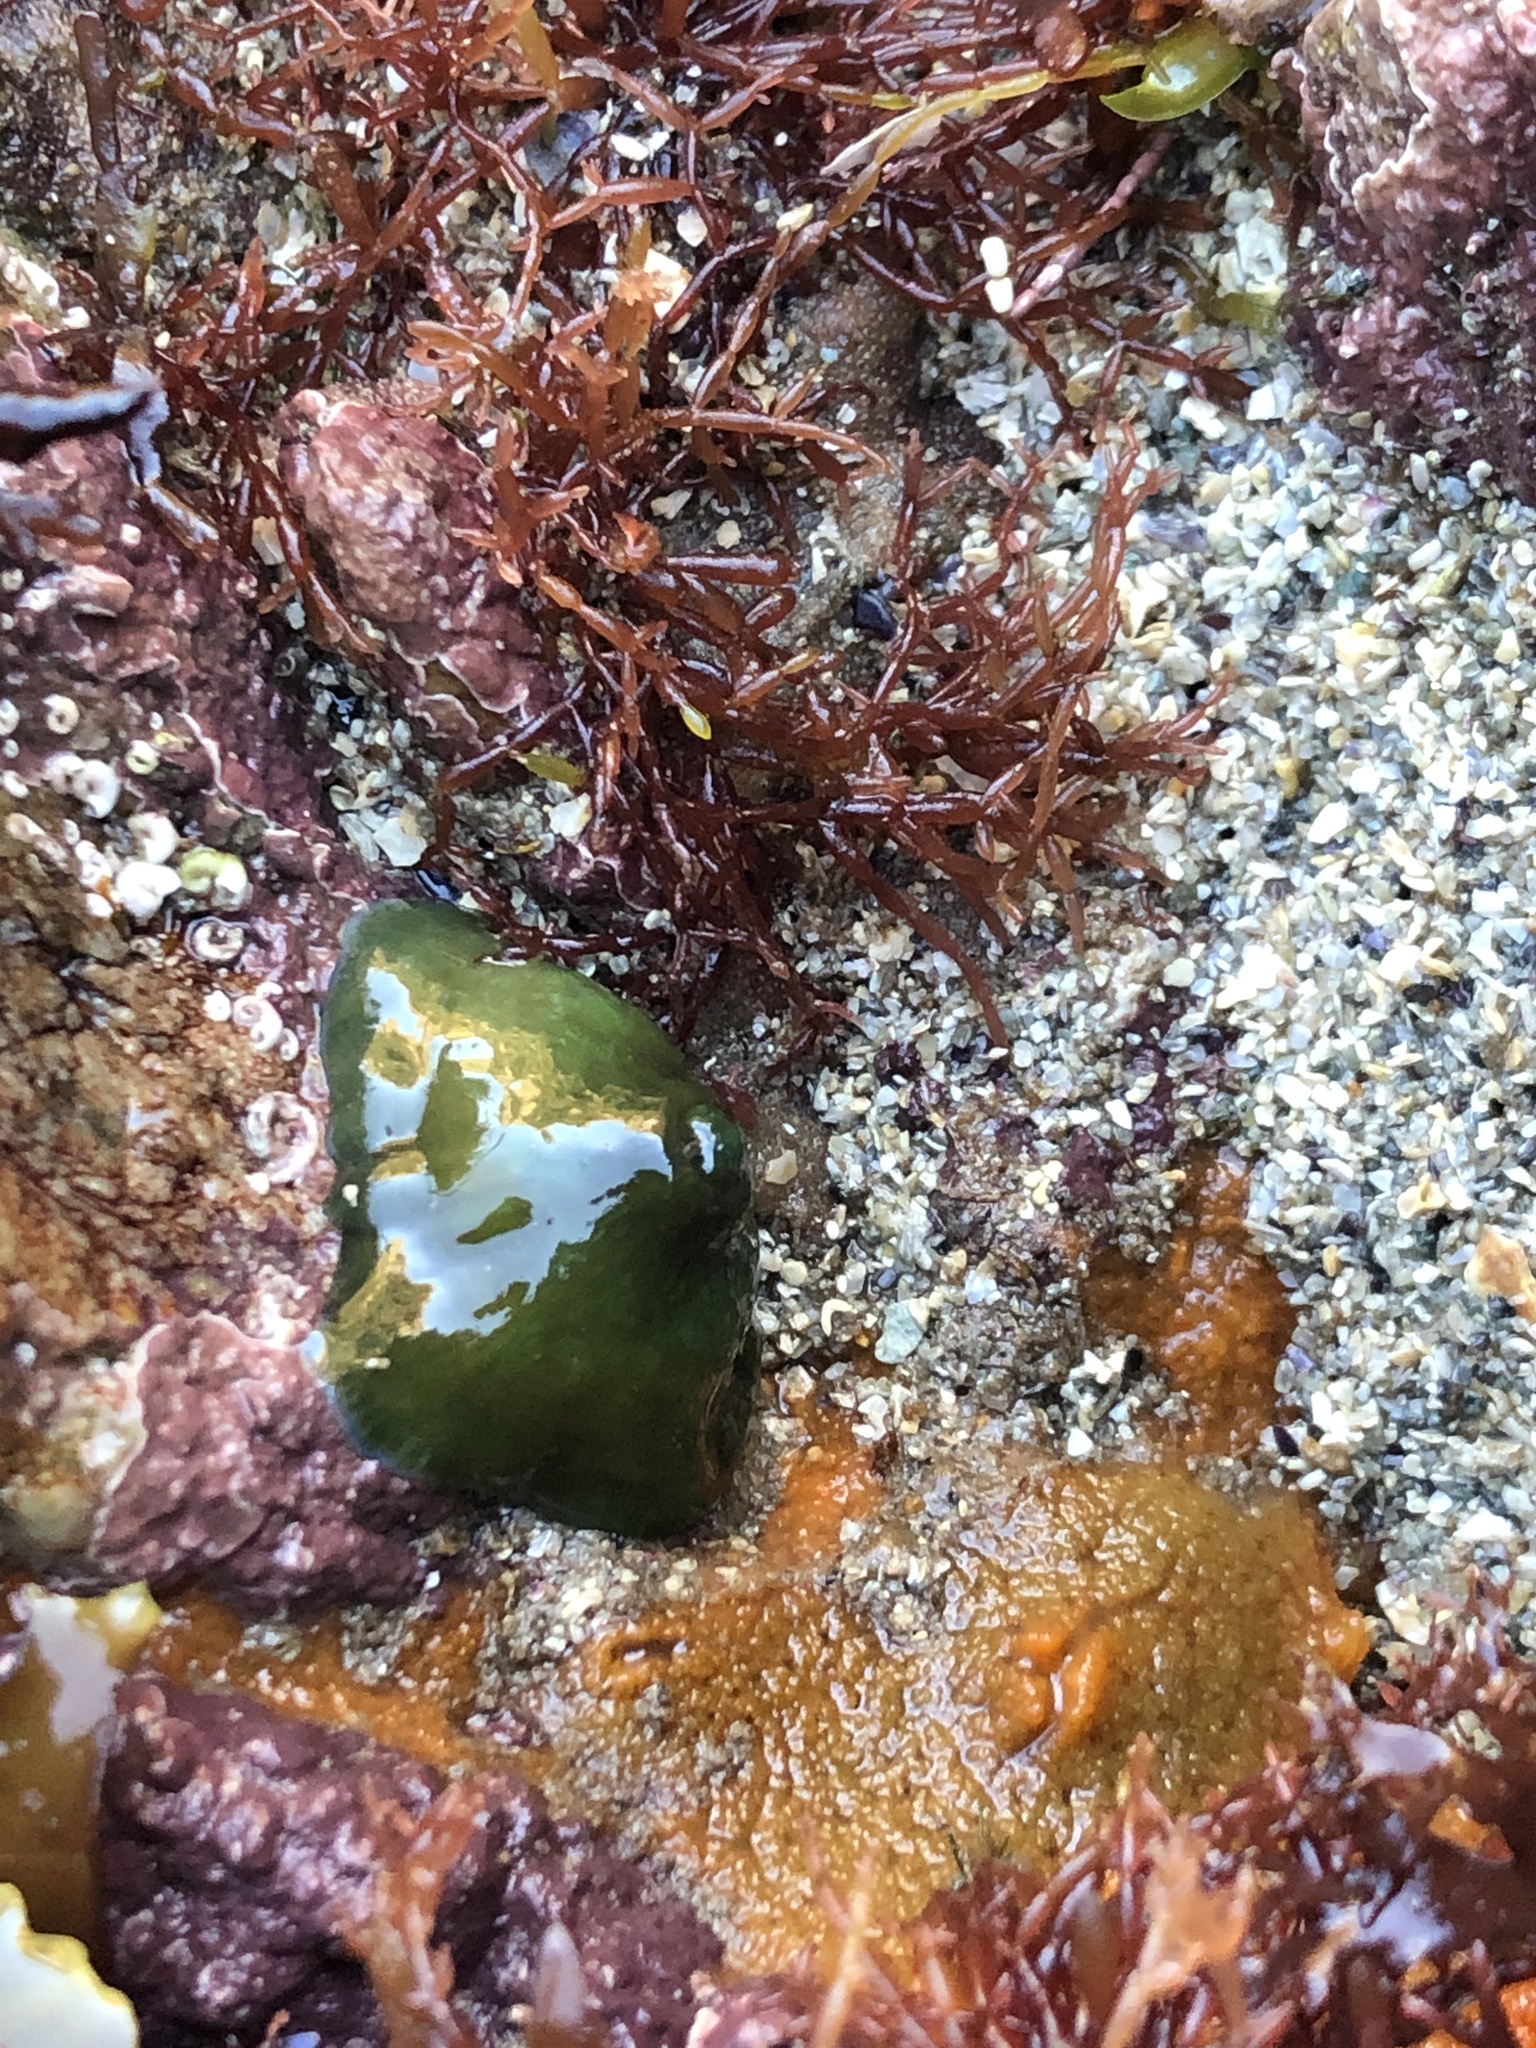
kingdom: Animalia
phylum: Cnidaria
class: Anthozoa
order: Actiniaria
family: Actiniidae
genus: Actinia
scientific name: Actinia equina
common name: Beadlet anemone
